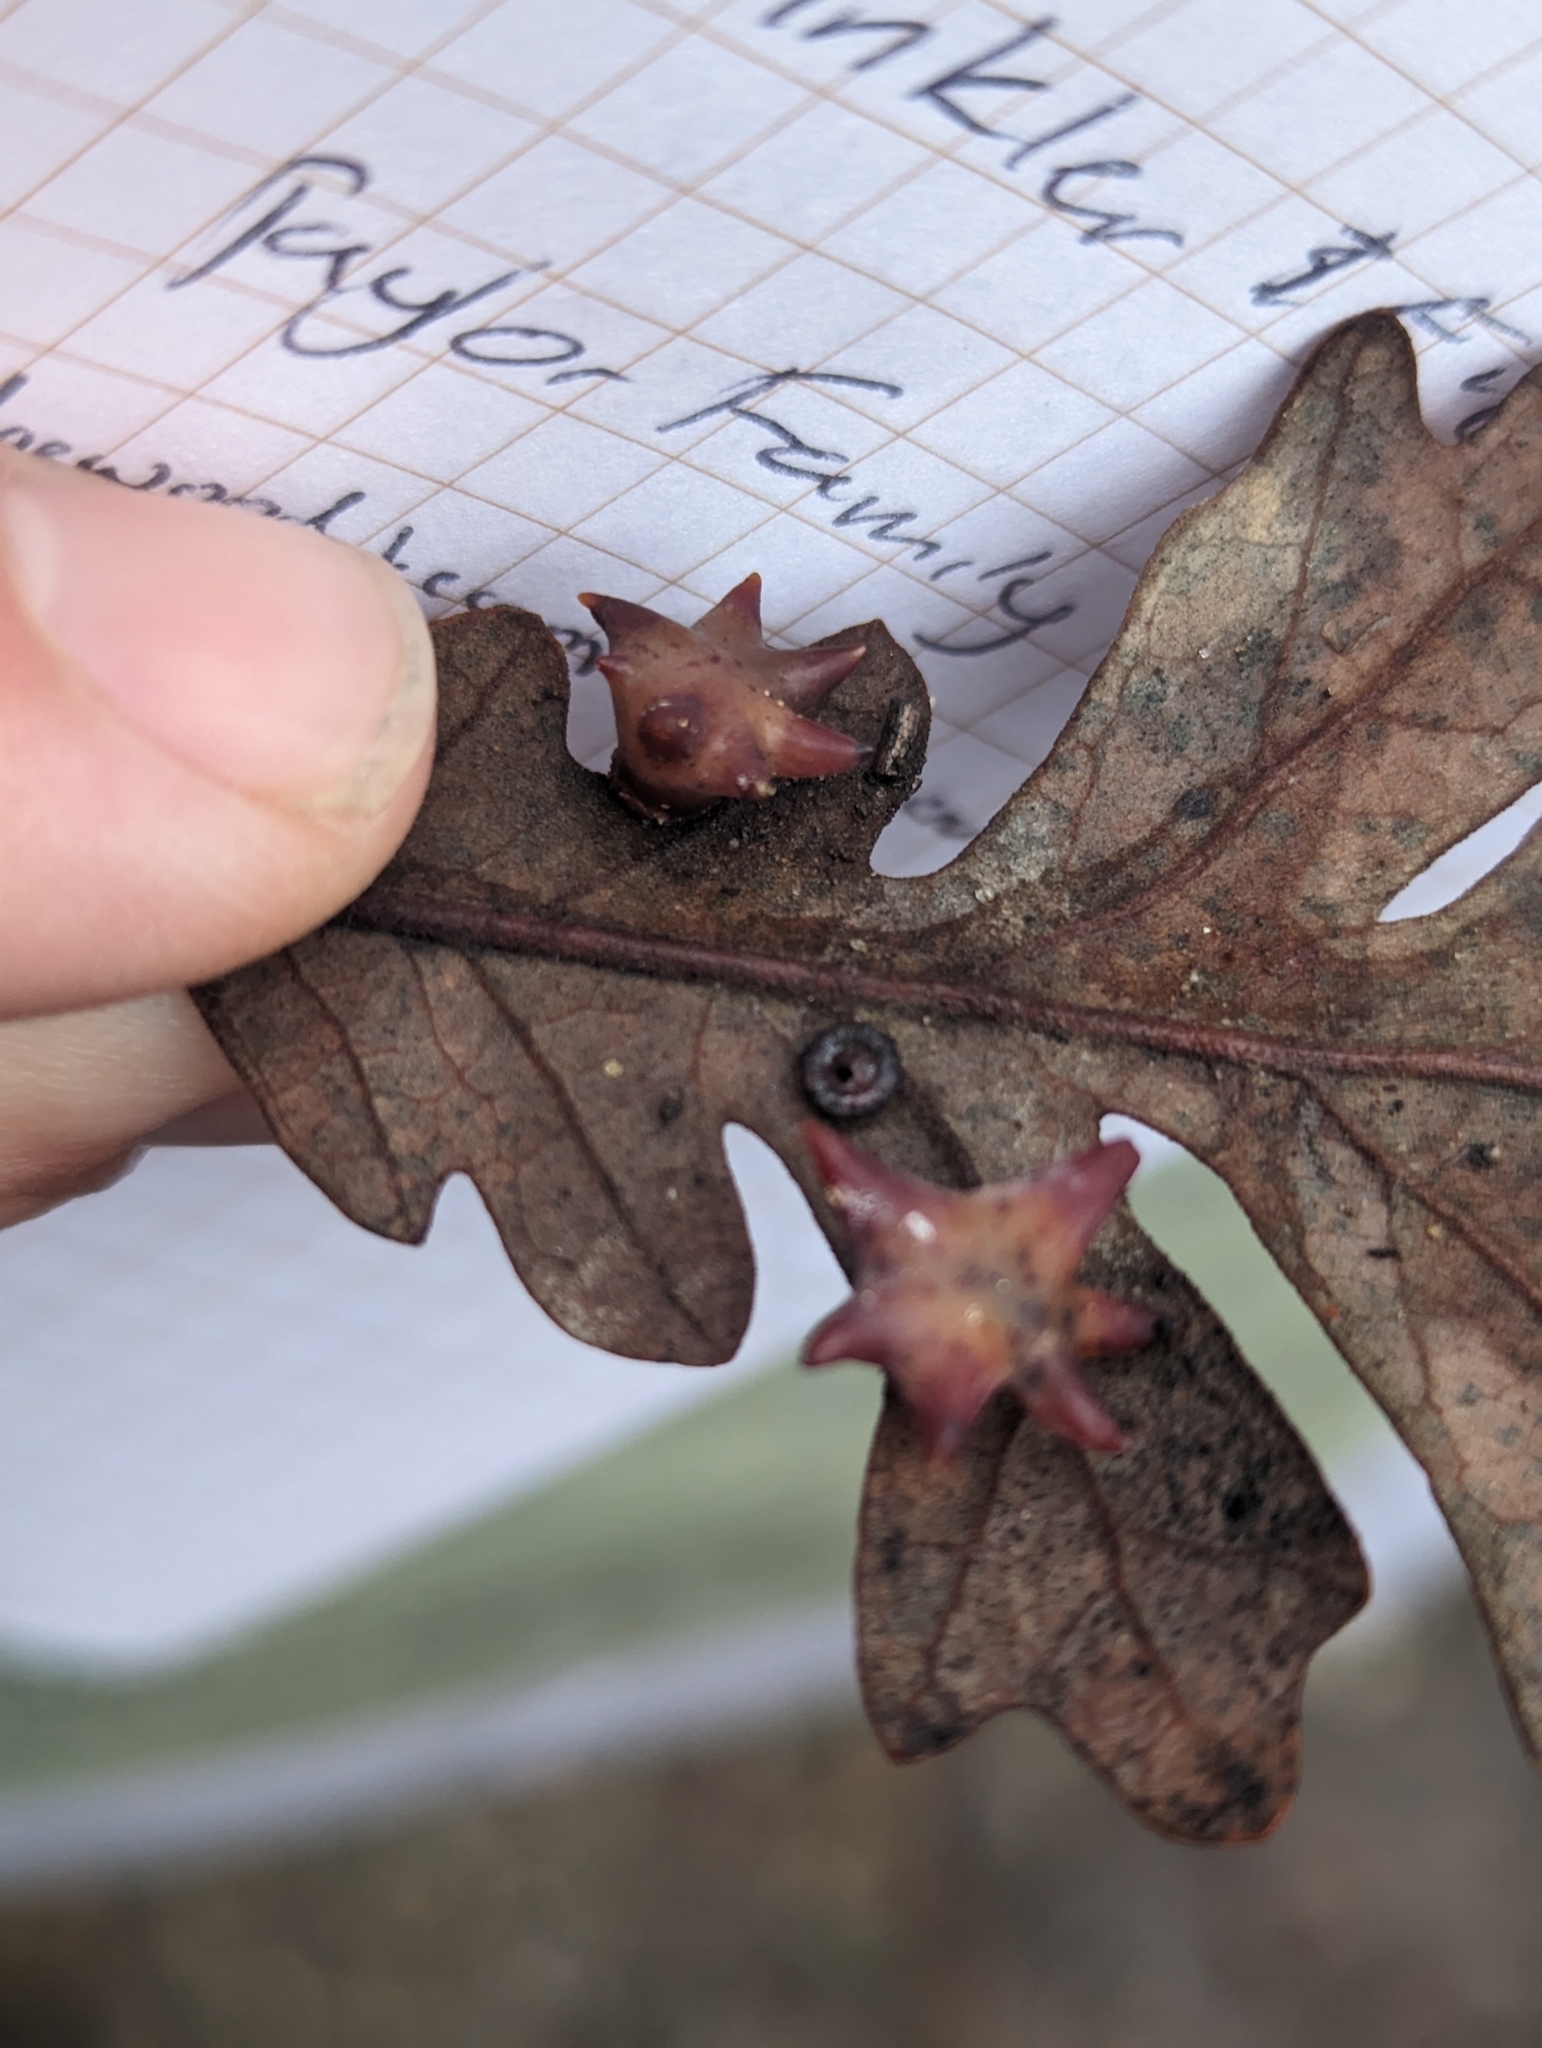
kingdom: Animalia
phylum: Arthropoda
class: Insecta
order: Hymenoptera
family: Cynipidae
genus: Andricus
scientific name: Andricus
